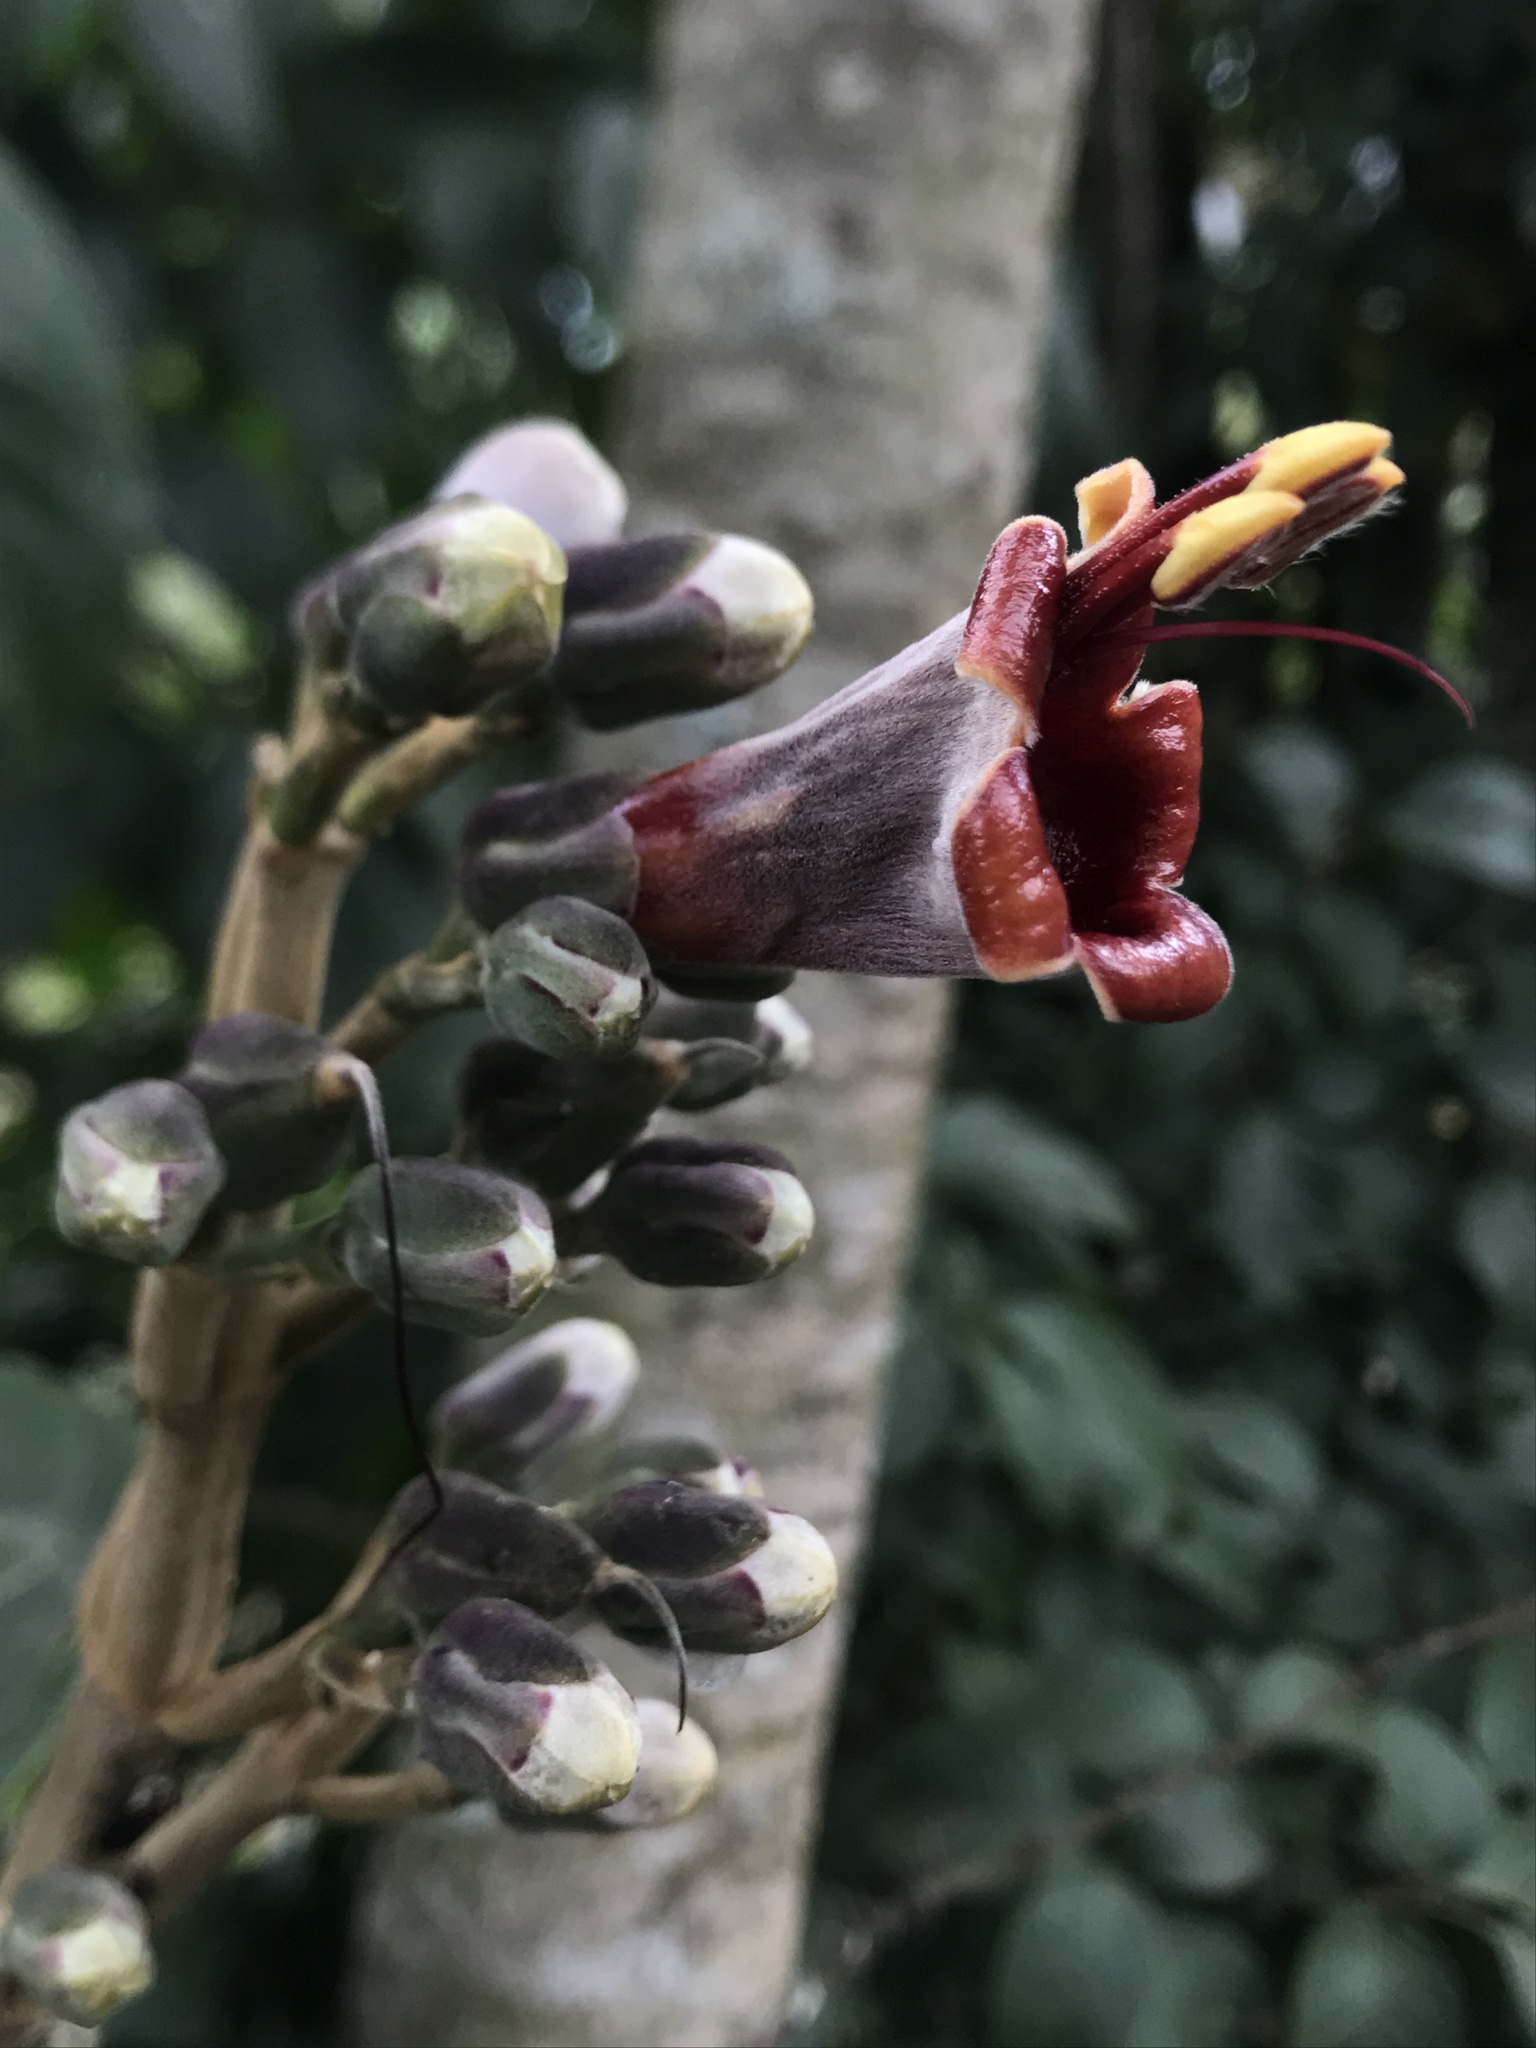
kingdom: Plantae
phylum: Tracheophyta
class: Magnoliopsida
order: Lamiales
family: Acanthaceae
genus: Trichanthera
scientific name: Trichanthera gigantea
